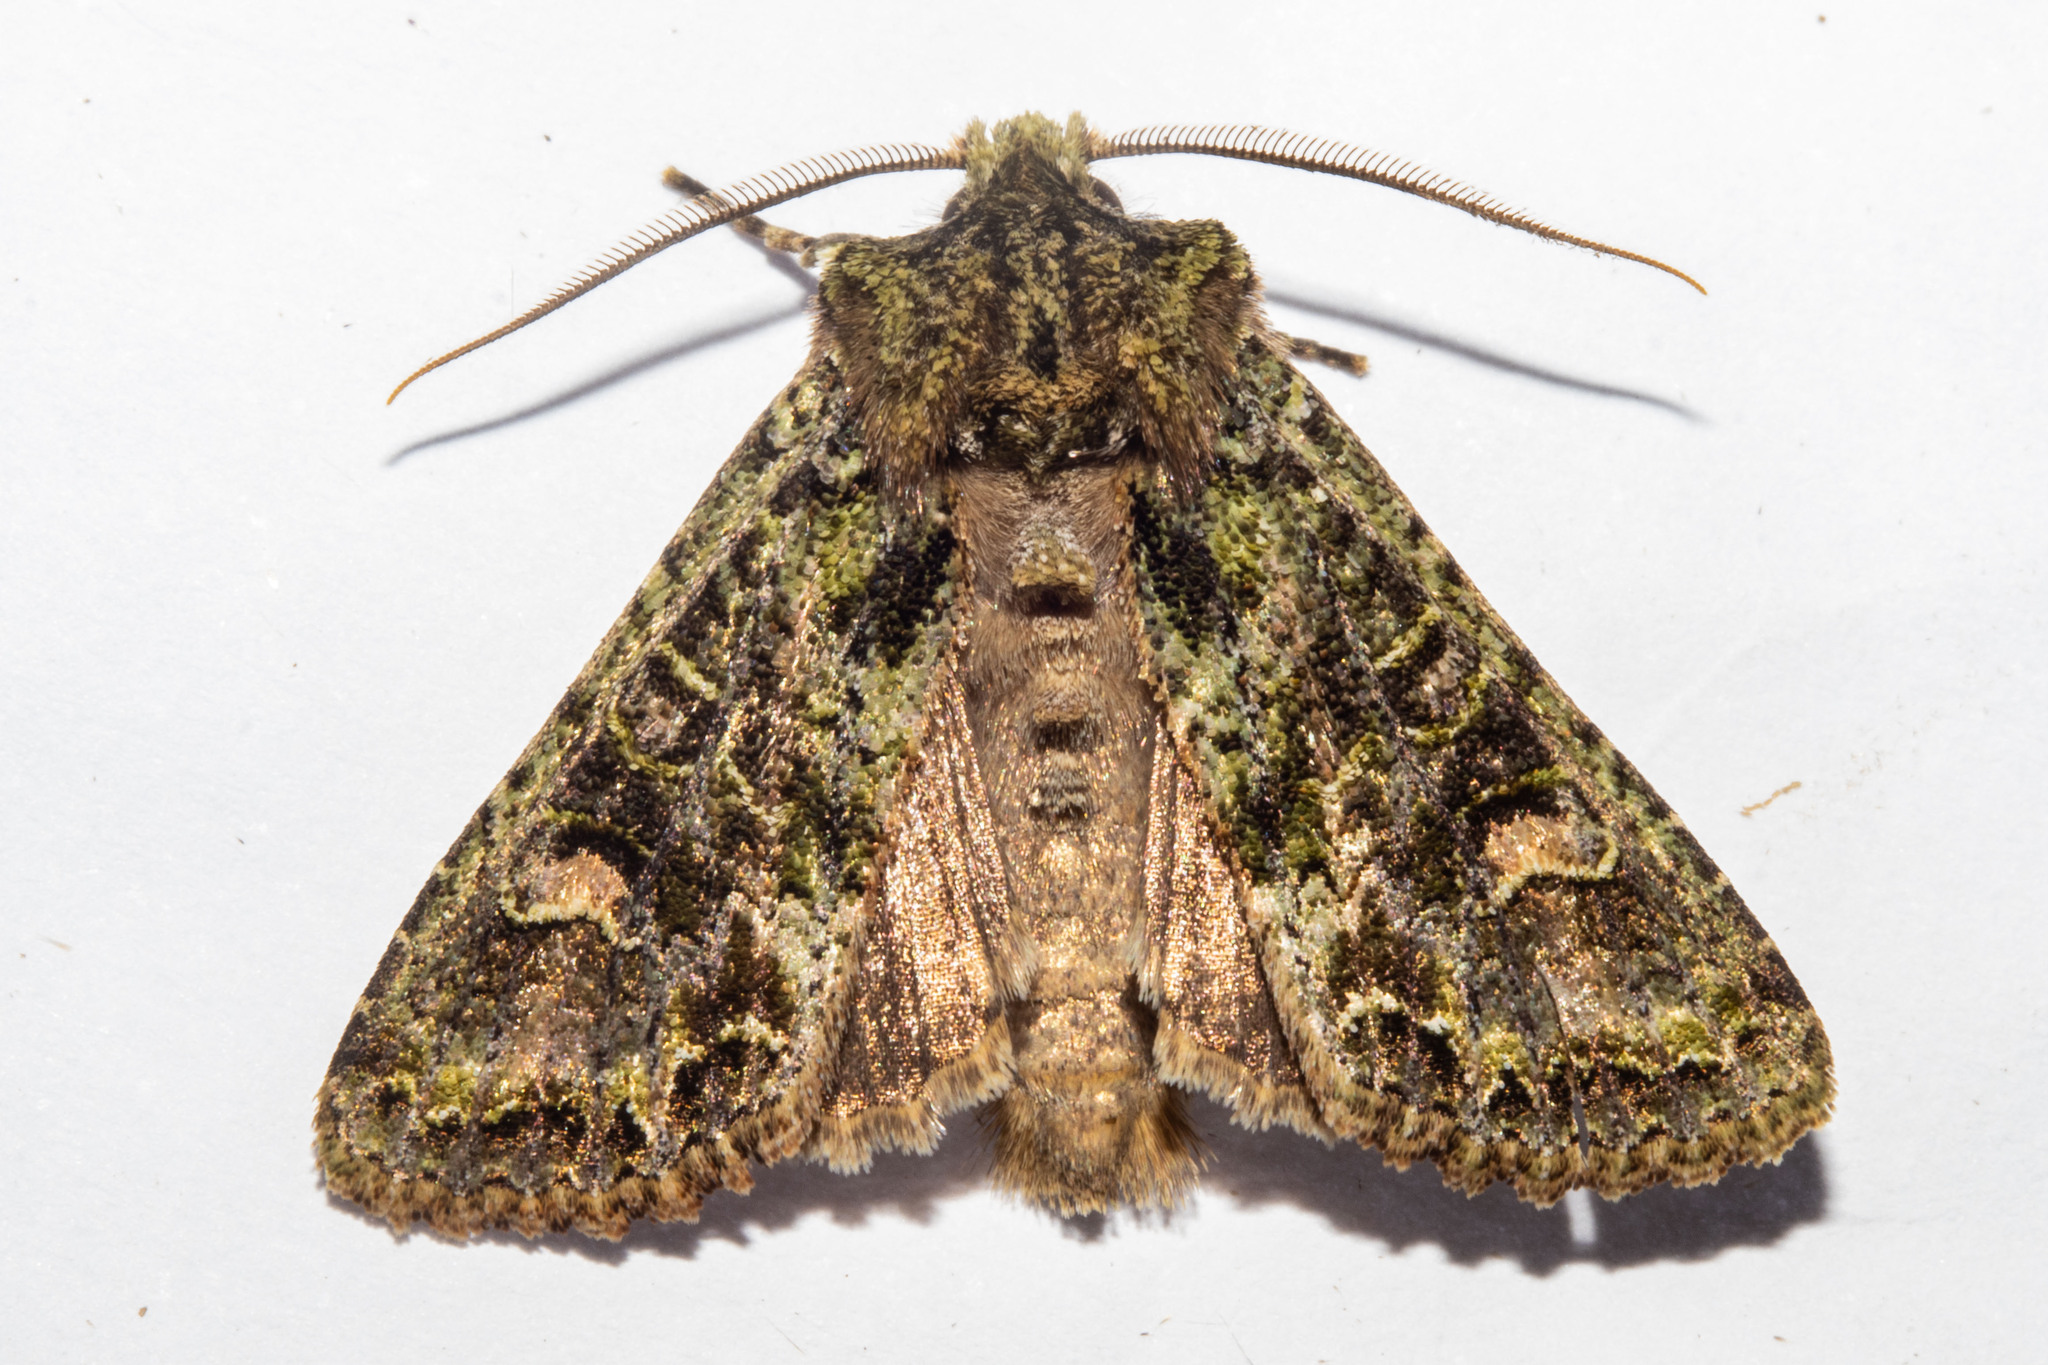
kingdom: Animalia
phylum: Arthropoda
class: Insecta
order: Lepidoptera
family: Noctuidae
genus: Ichneutica
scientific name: Ichneutica
